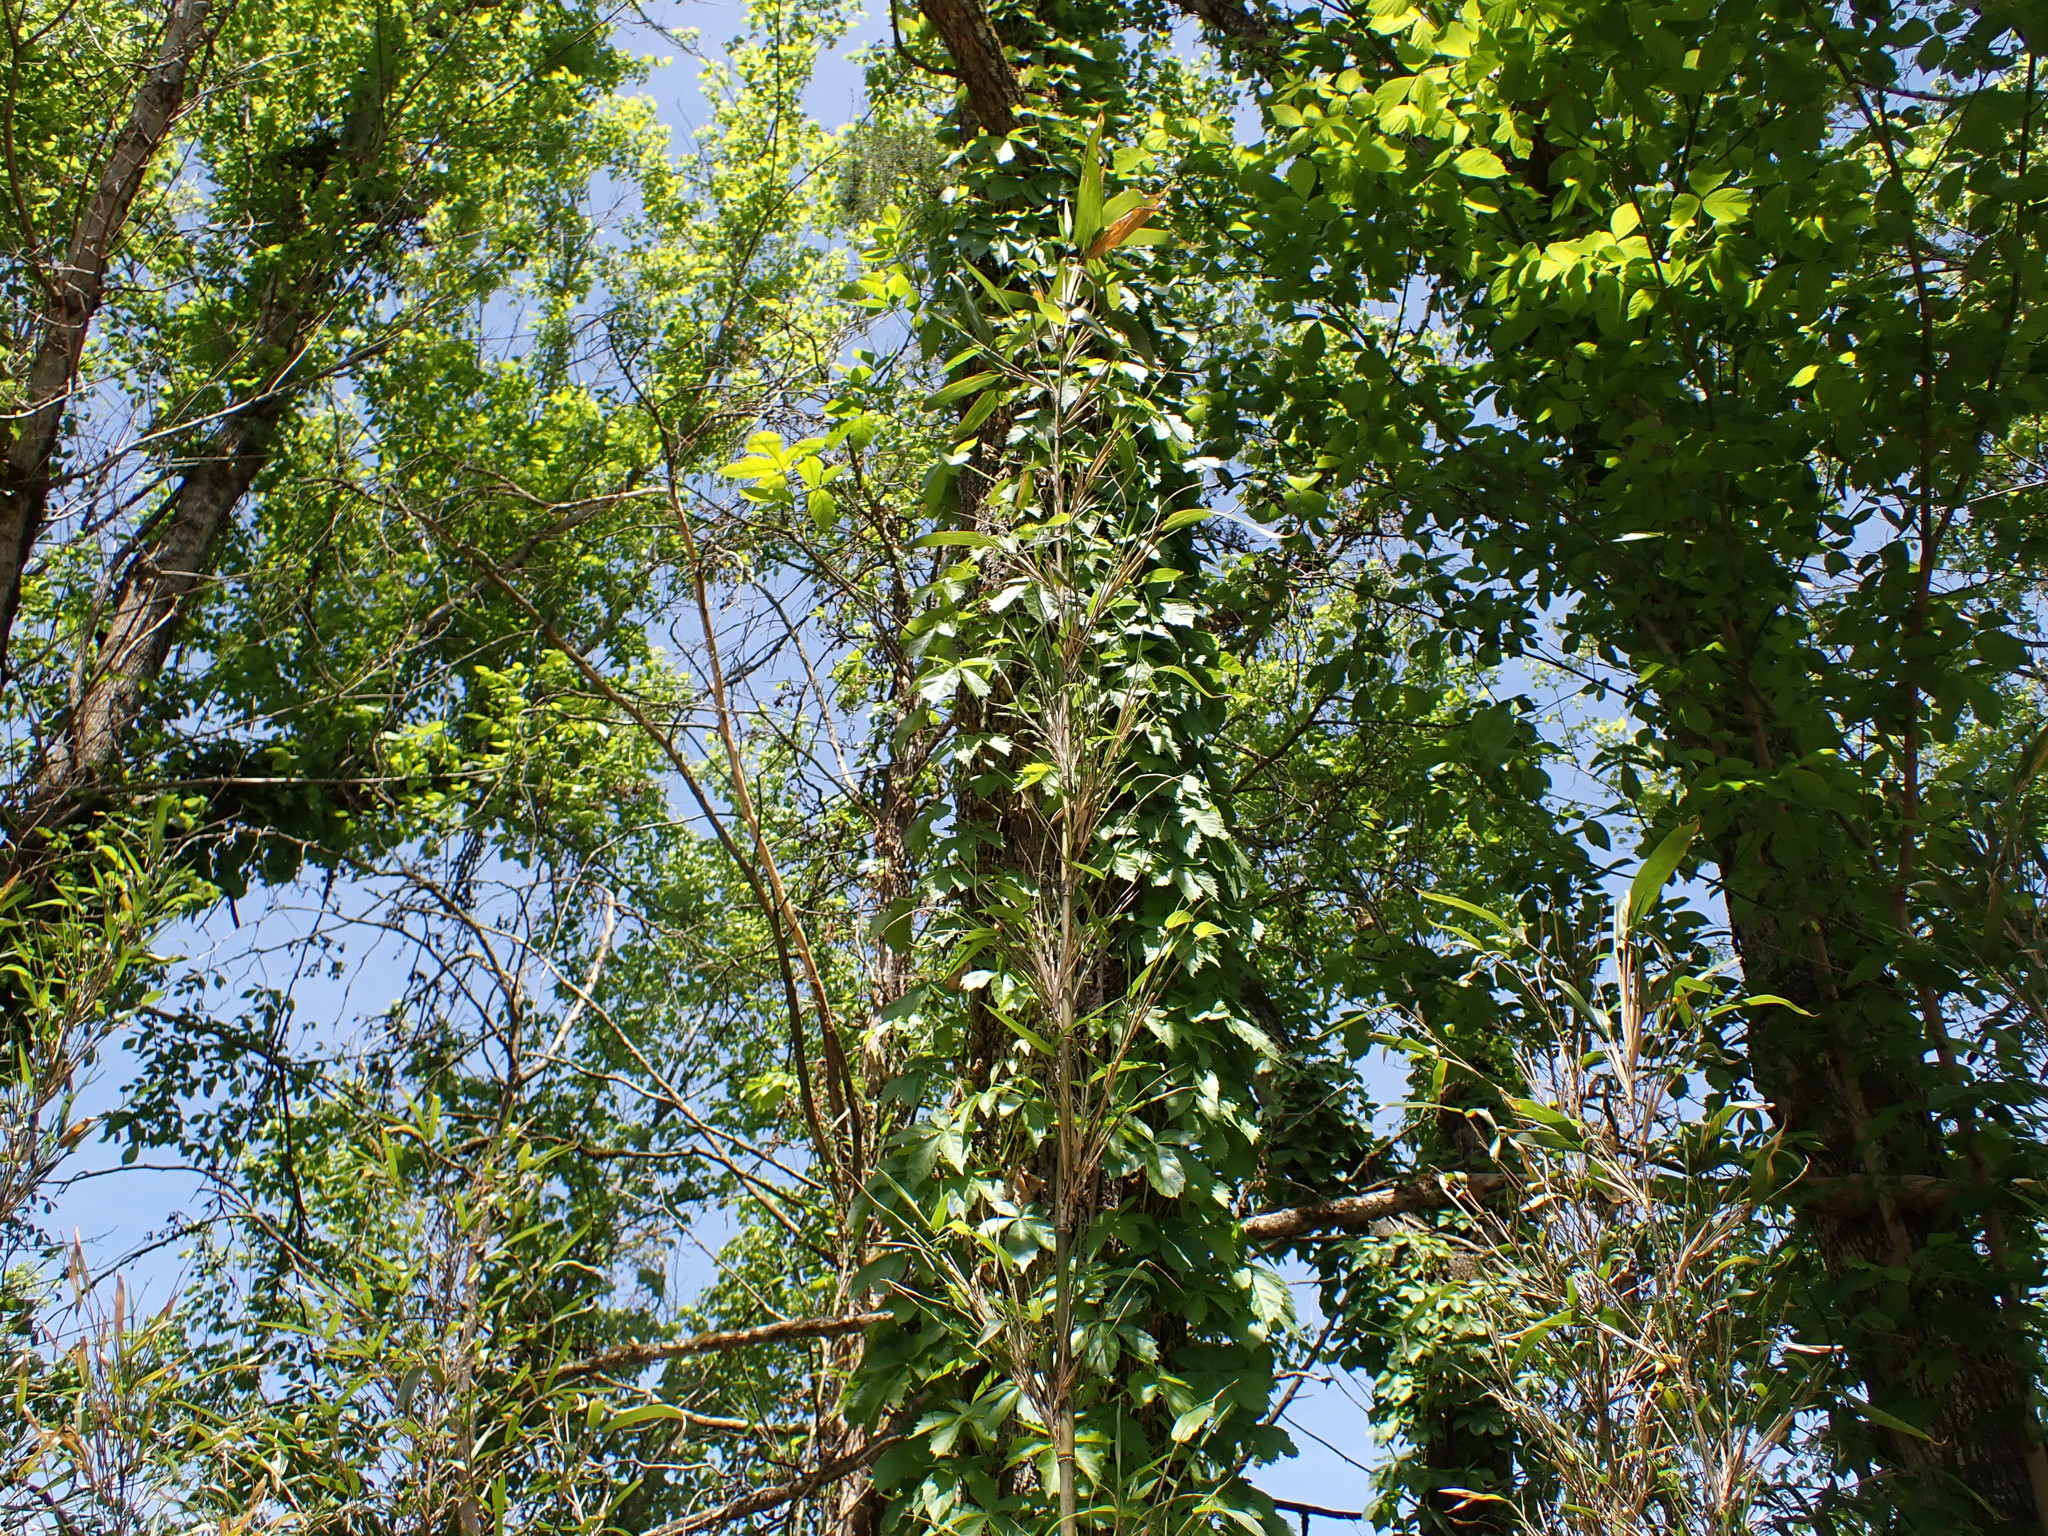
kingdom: Plantae
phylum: Tracheophyta
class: Liliopsida
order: Poales
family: Poaceae
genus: Arundinaria
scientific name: Arundinaria gigantea
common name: Giant cane
